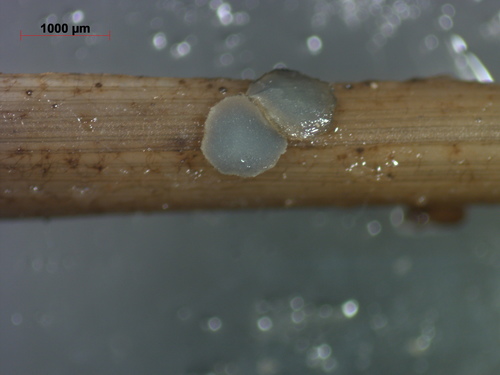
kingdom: Fungi
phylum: Ascomycota
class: Leotiomycetes
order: Helotiales
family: Mollisiaceae
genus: Mollisia
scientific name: Mollisia
